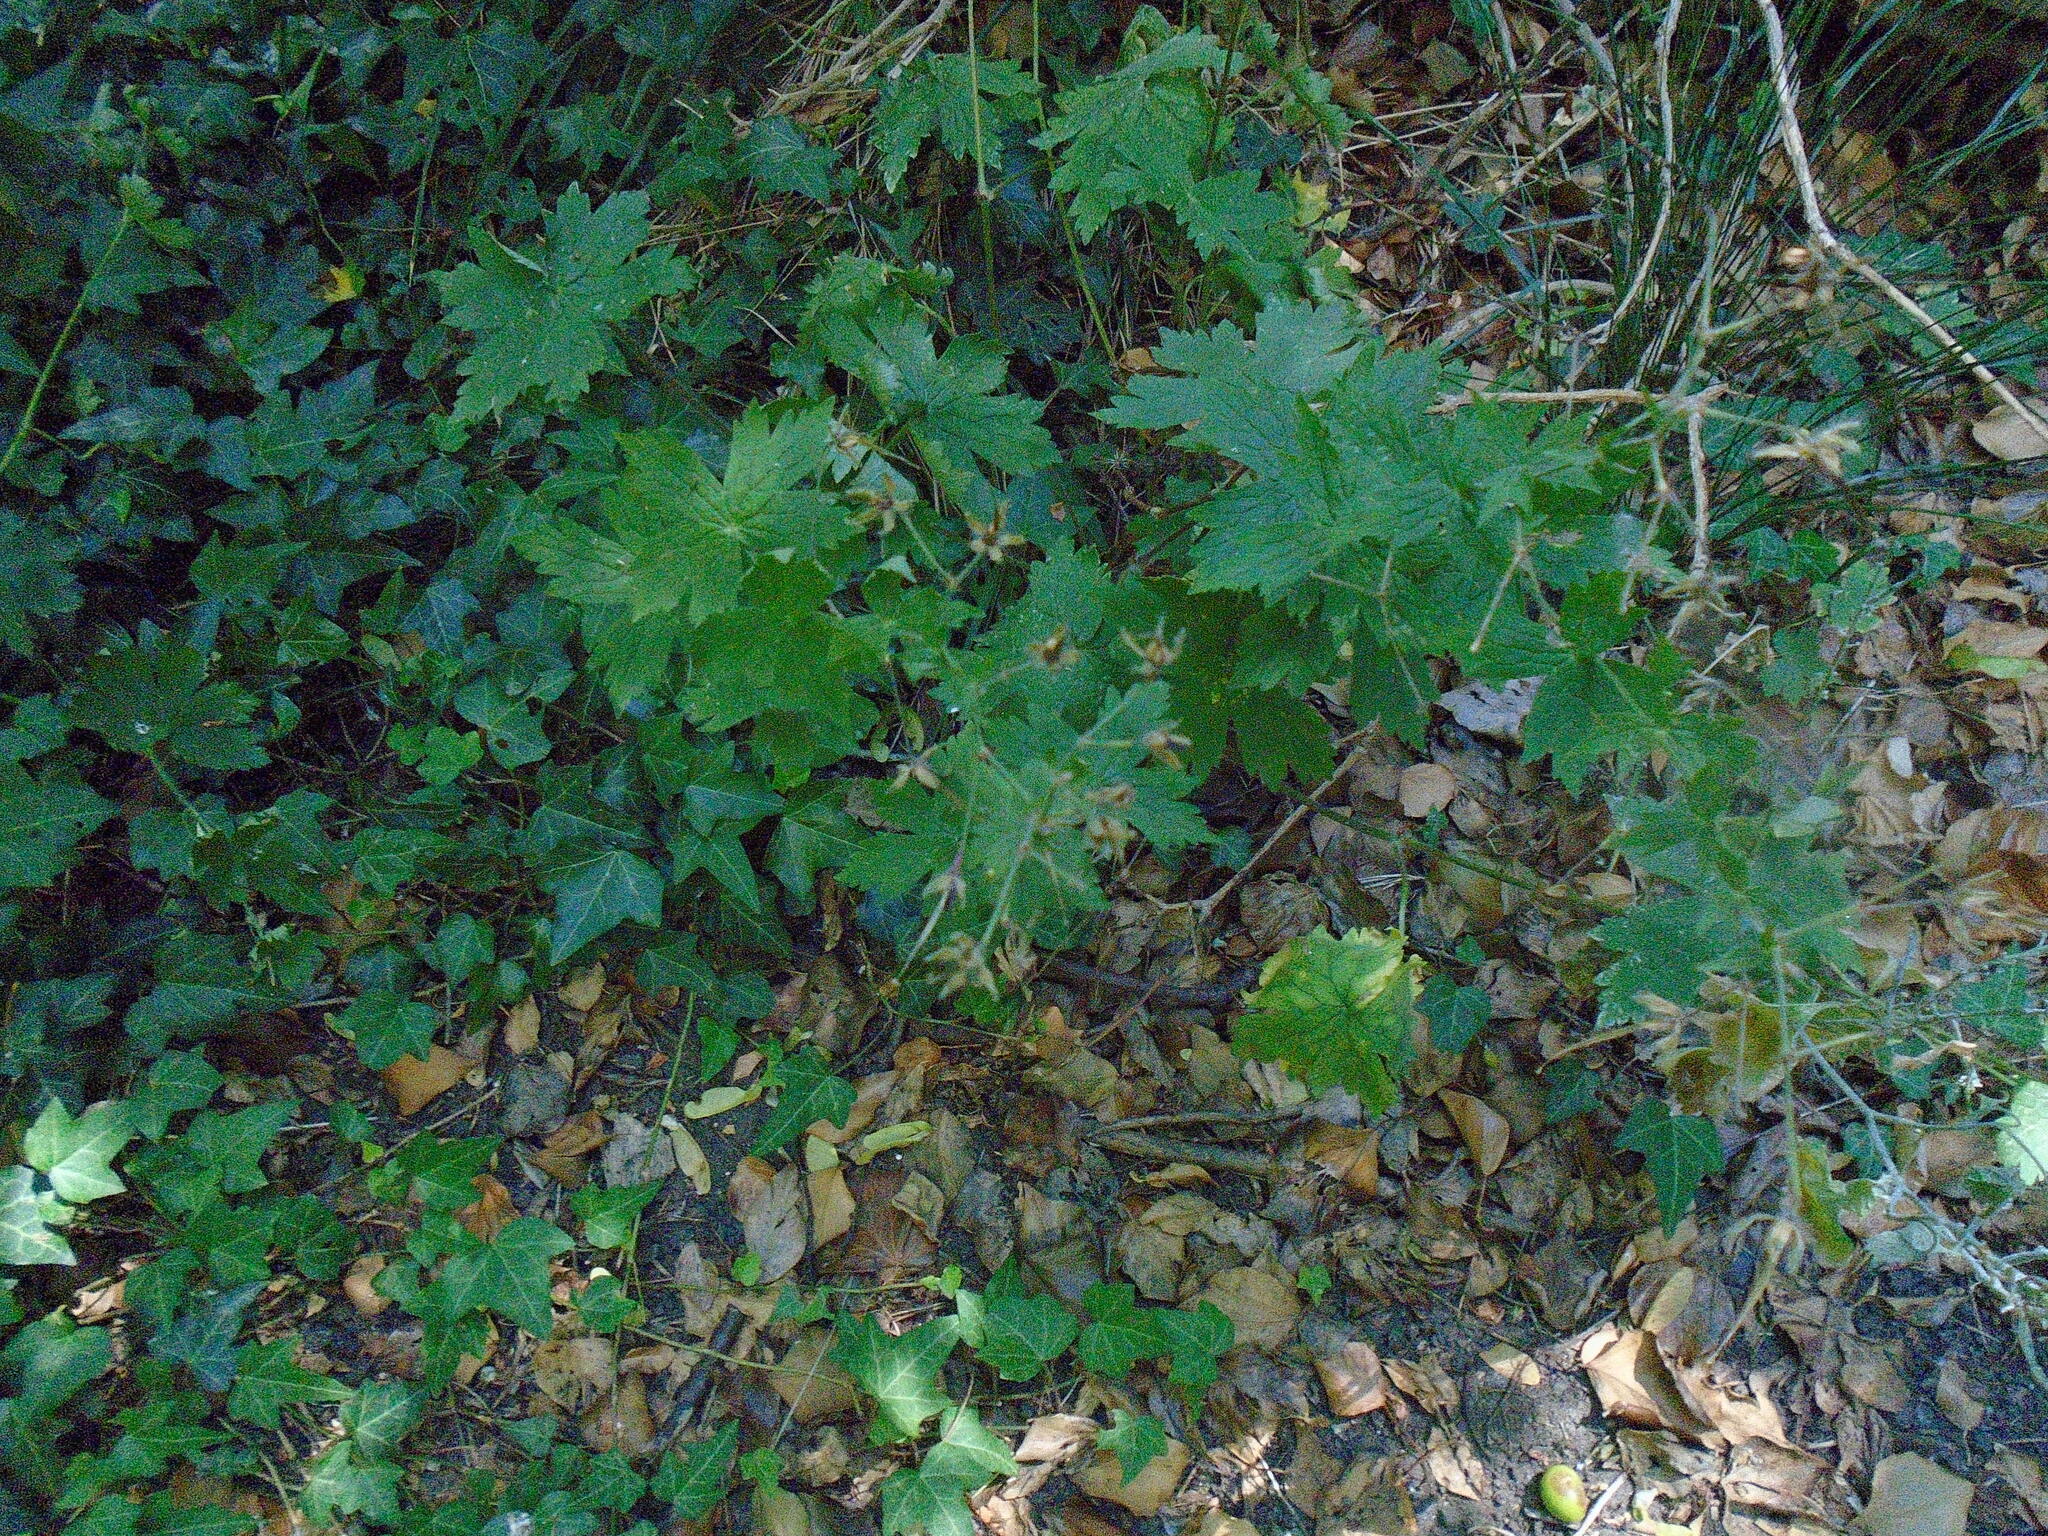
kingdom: Plantae
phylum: Tracheophyta
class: Magnoliopsida
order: Geraniales
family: Geraniaceae
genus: Geranium
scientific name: Geranium phaeum
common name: Dusky crane's-bill
